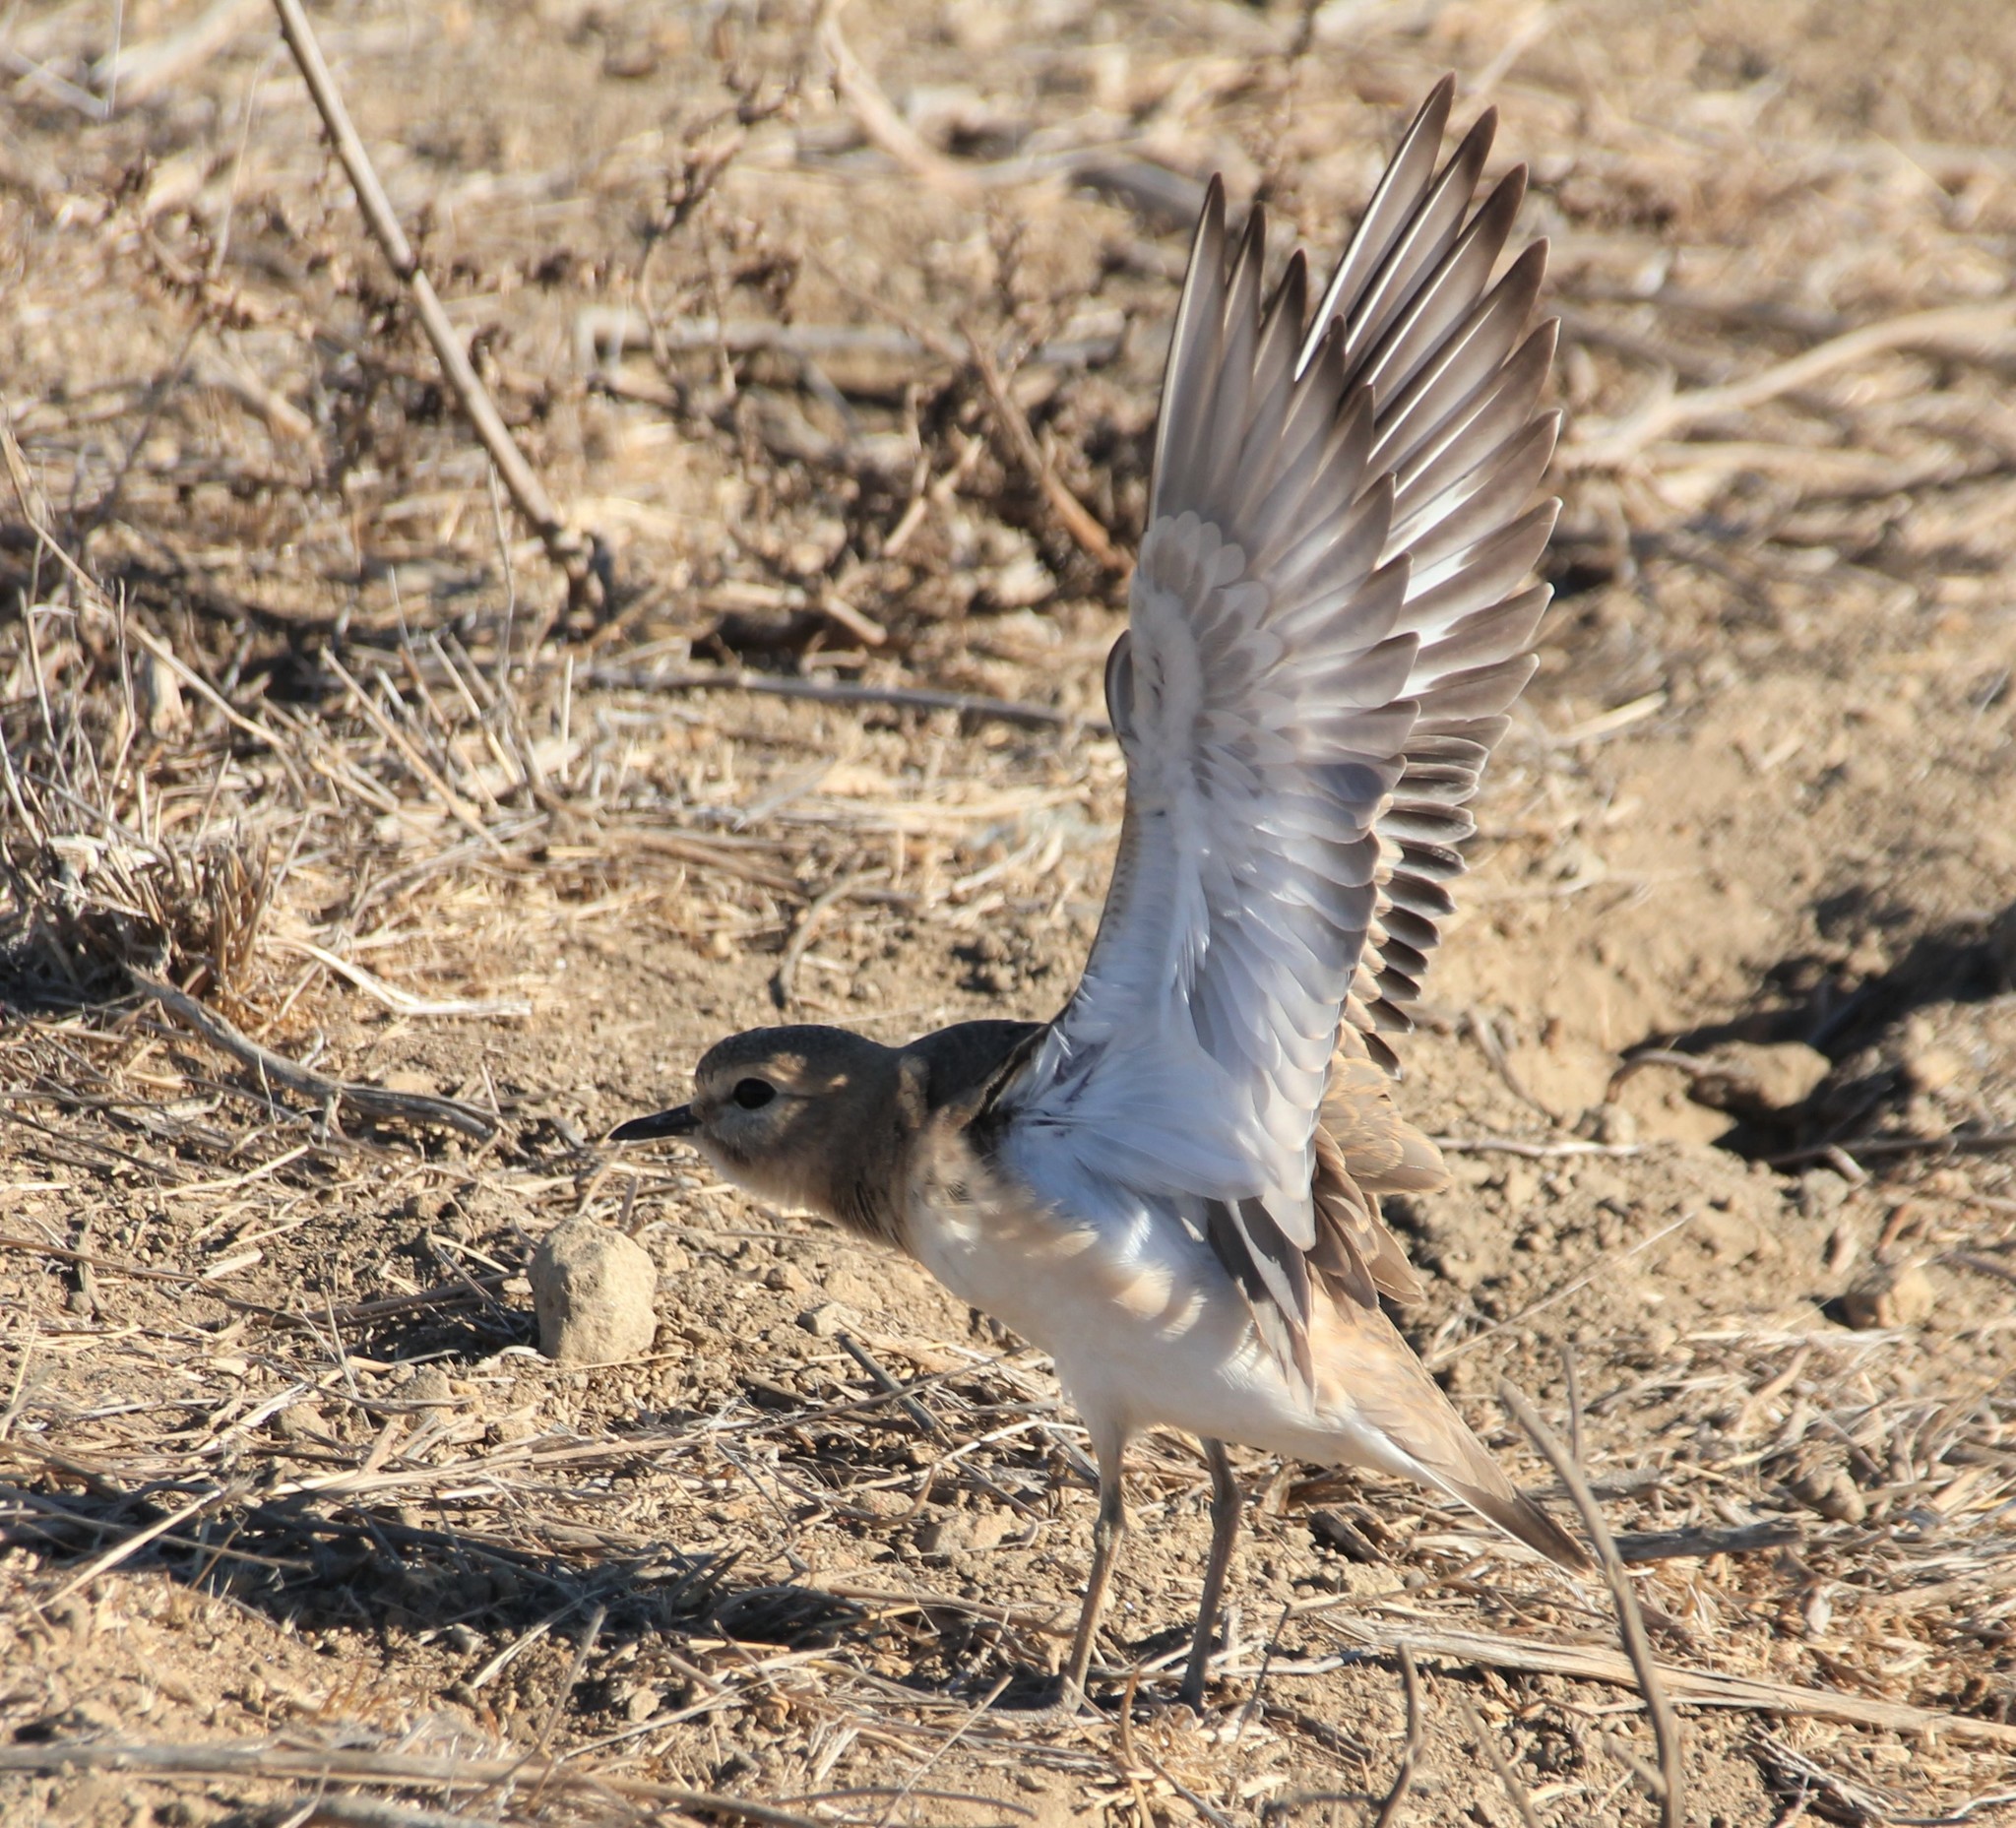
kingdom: Animalia
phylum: Chordata
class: Aves
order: Charadriiformes
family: Charadriidae
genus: Anarhynchus
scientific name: Anarhynchus
